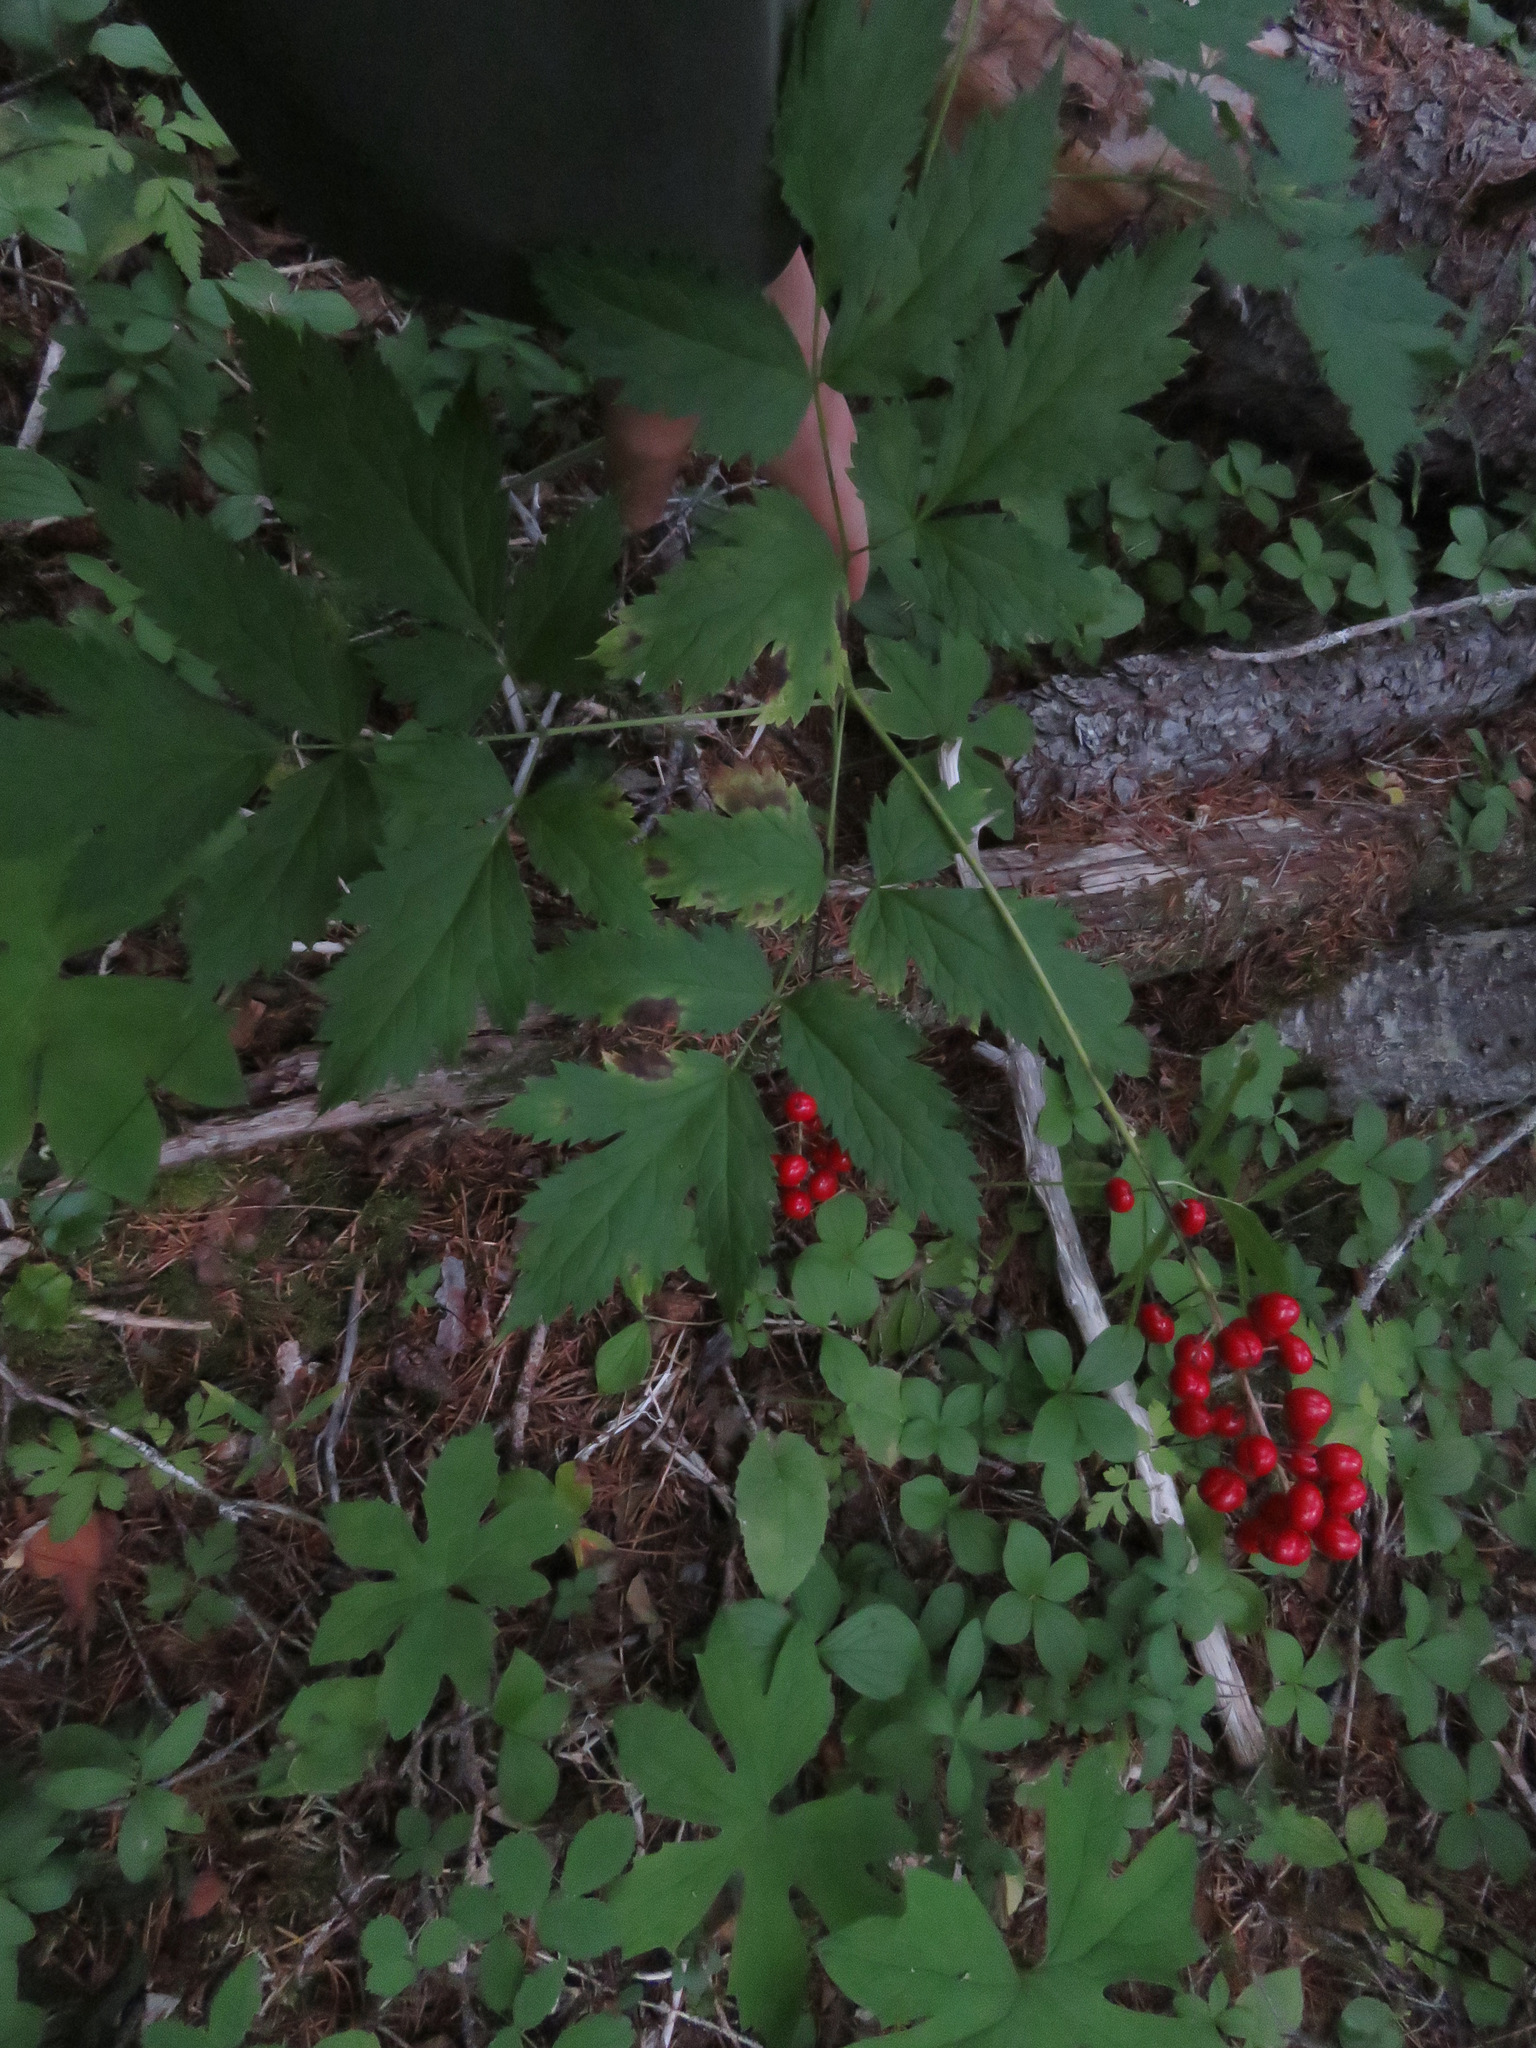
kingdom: Plantae
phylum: Tracheophyta
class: Magnoliopsida
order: Ranunculales
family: Ranunculaceae
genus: Actaea
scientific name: Actaea rubra
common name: Red baneberry
